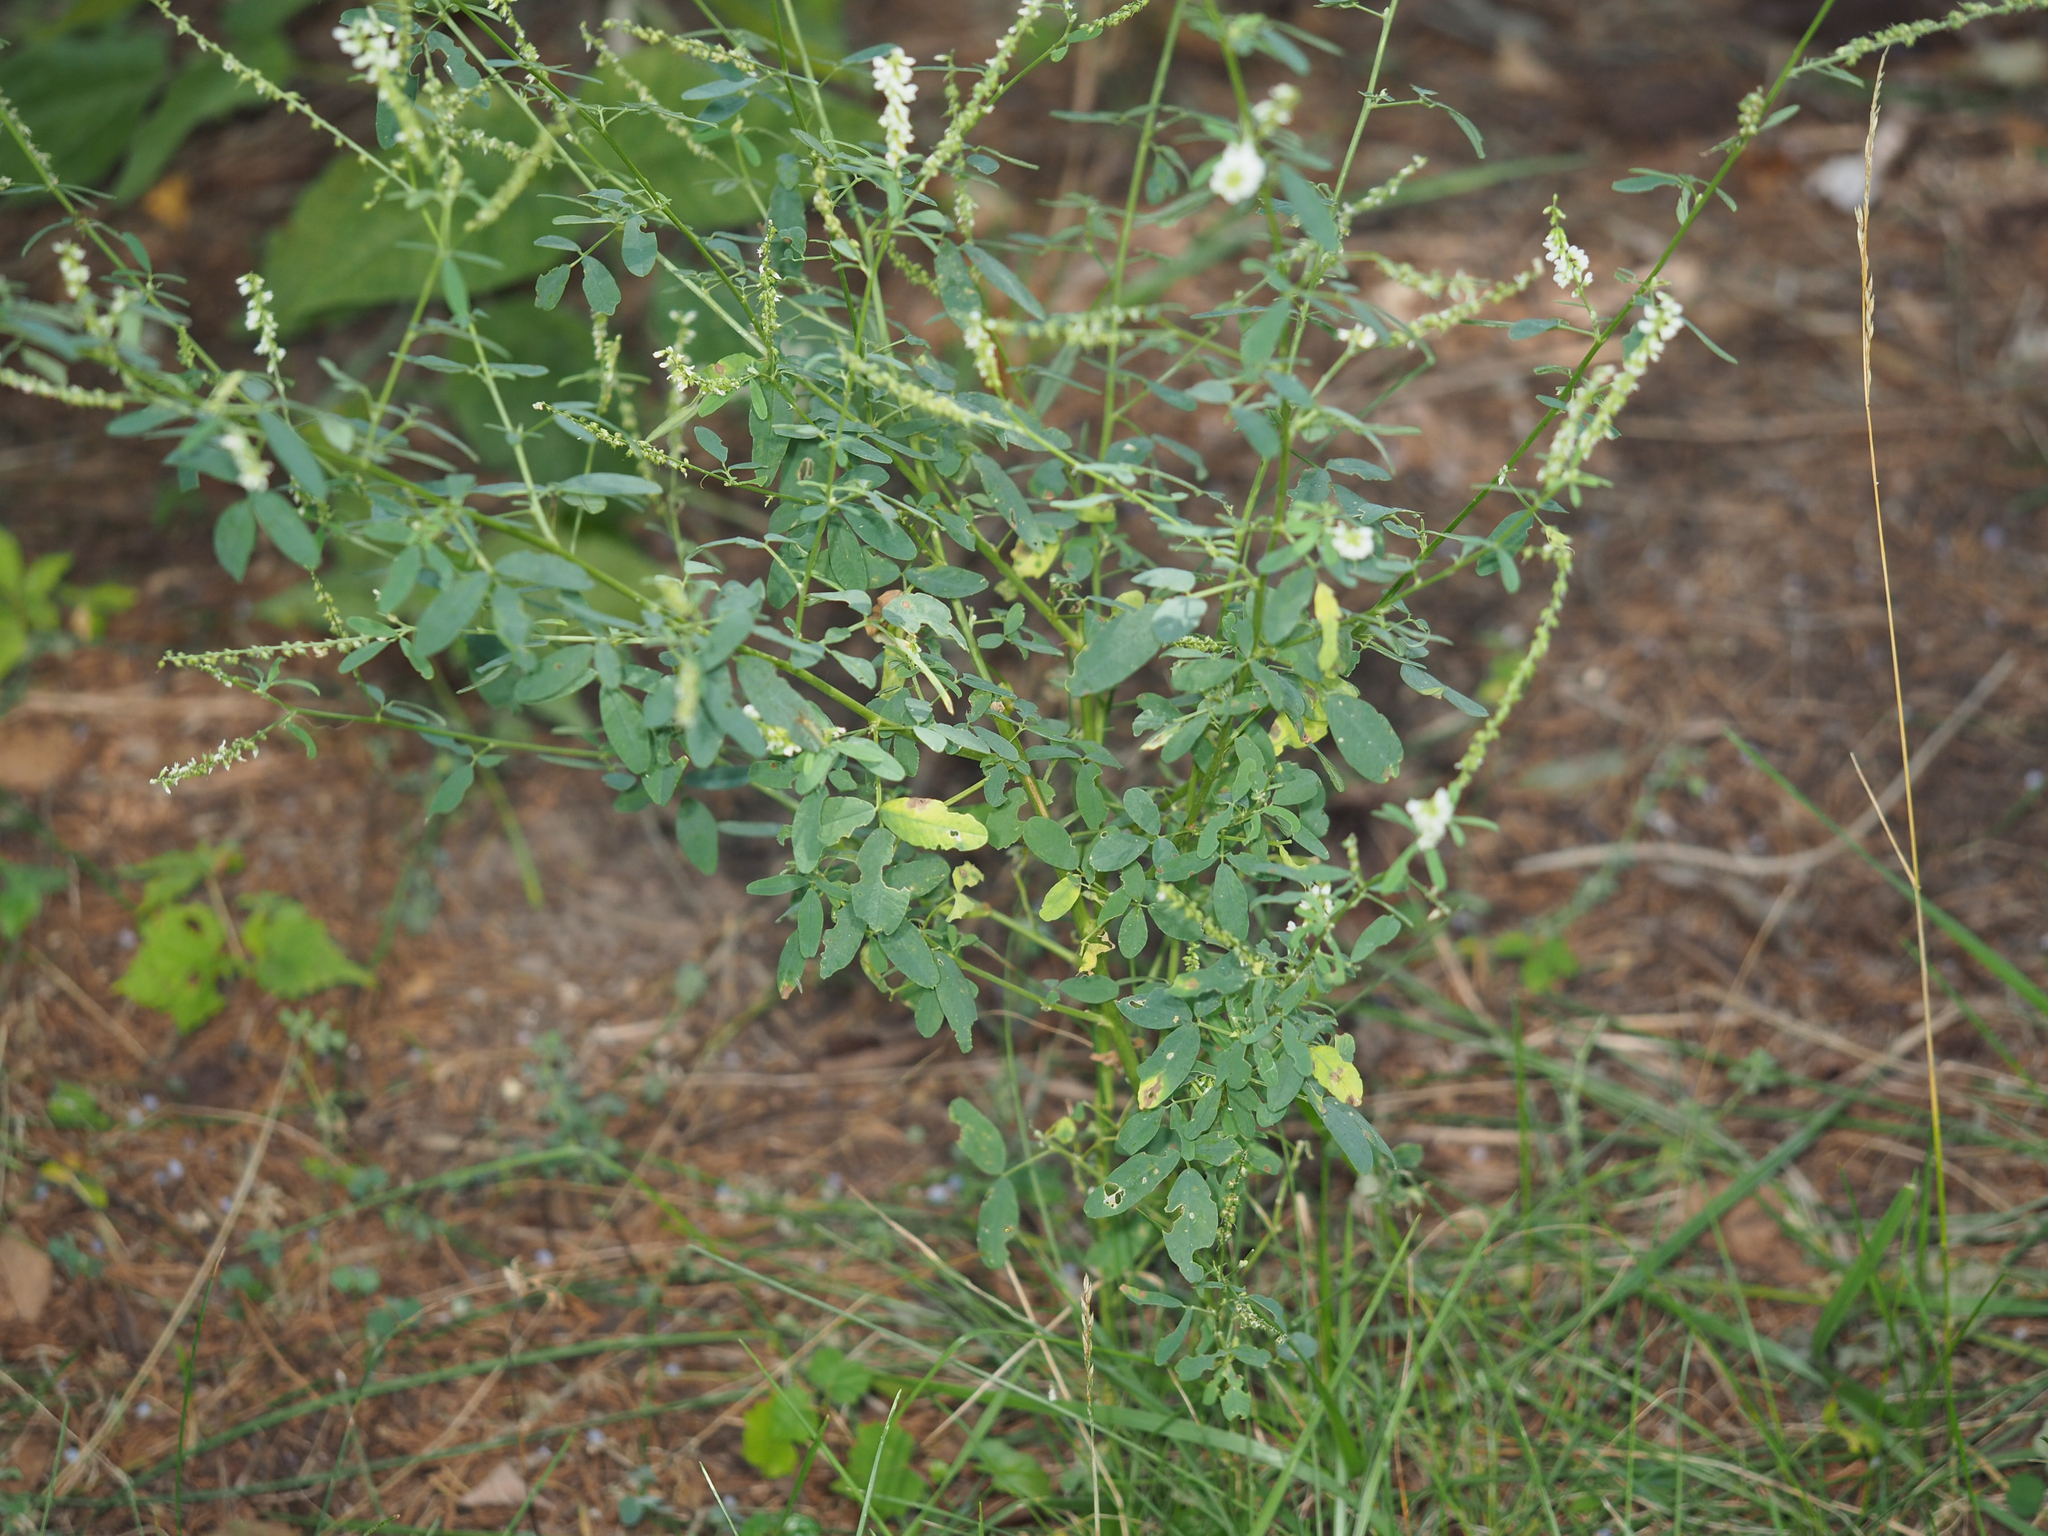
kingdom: Plantae
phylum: Tracheophyta
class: Magnoliopsida
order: Fabales
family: Fabaceae
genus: Melilotus
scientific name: Melilotus albus
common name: White melilot
